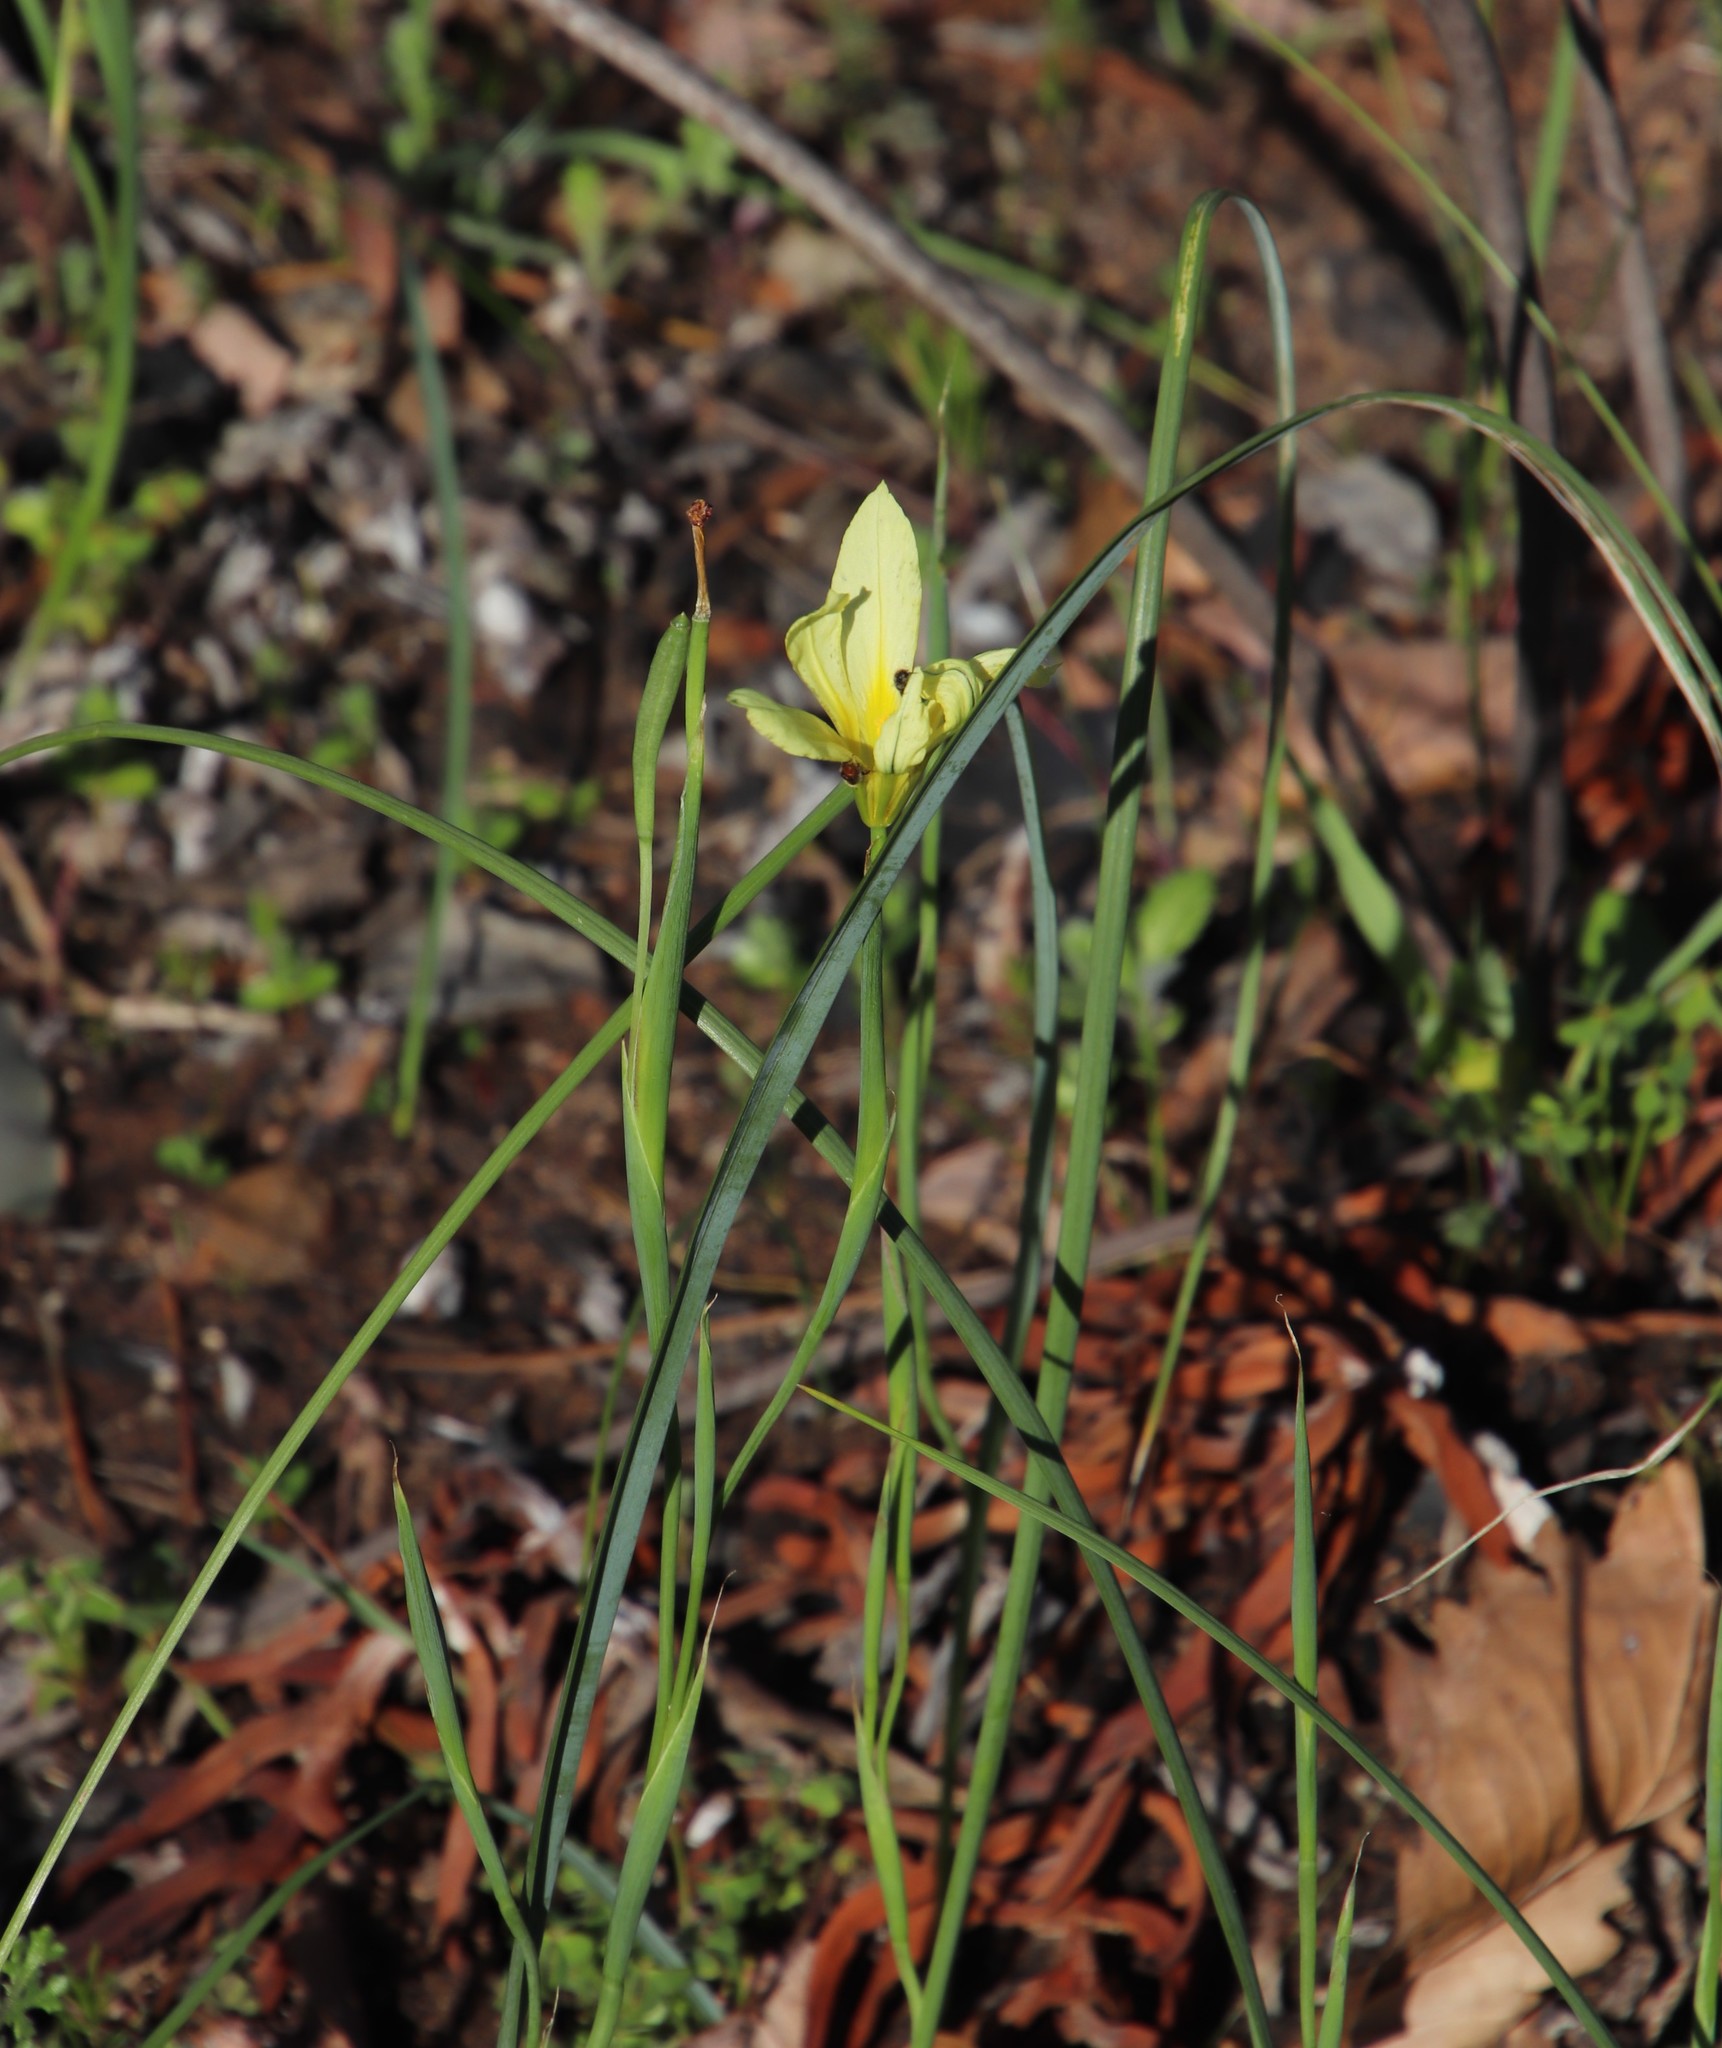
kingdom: Plantae
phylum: Tracheophyta
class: Liliopsida
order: Asparagales
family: Iridaceae
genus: Moraea
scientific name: Moraea collina
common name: Cape-tulip
